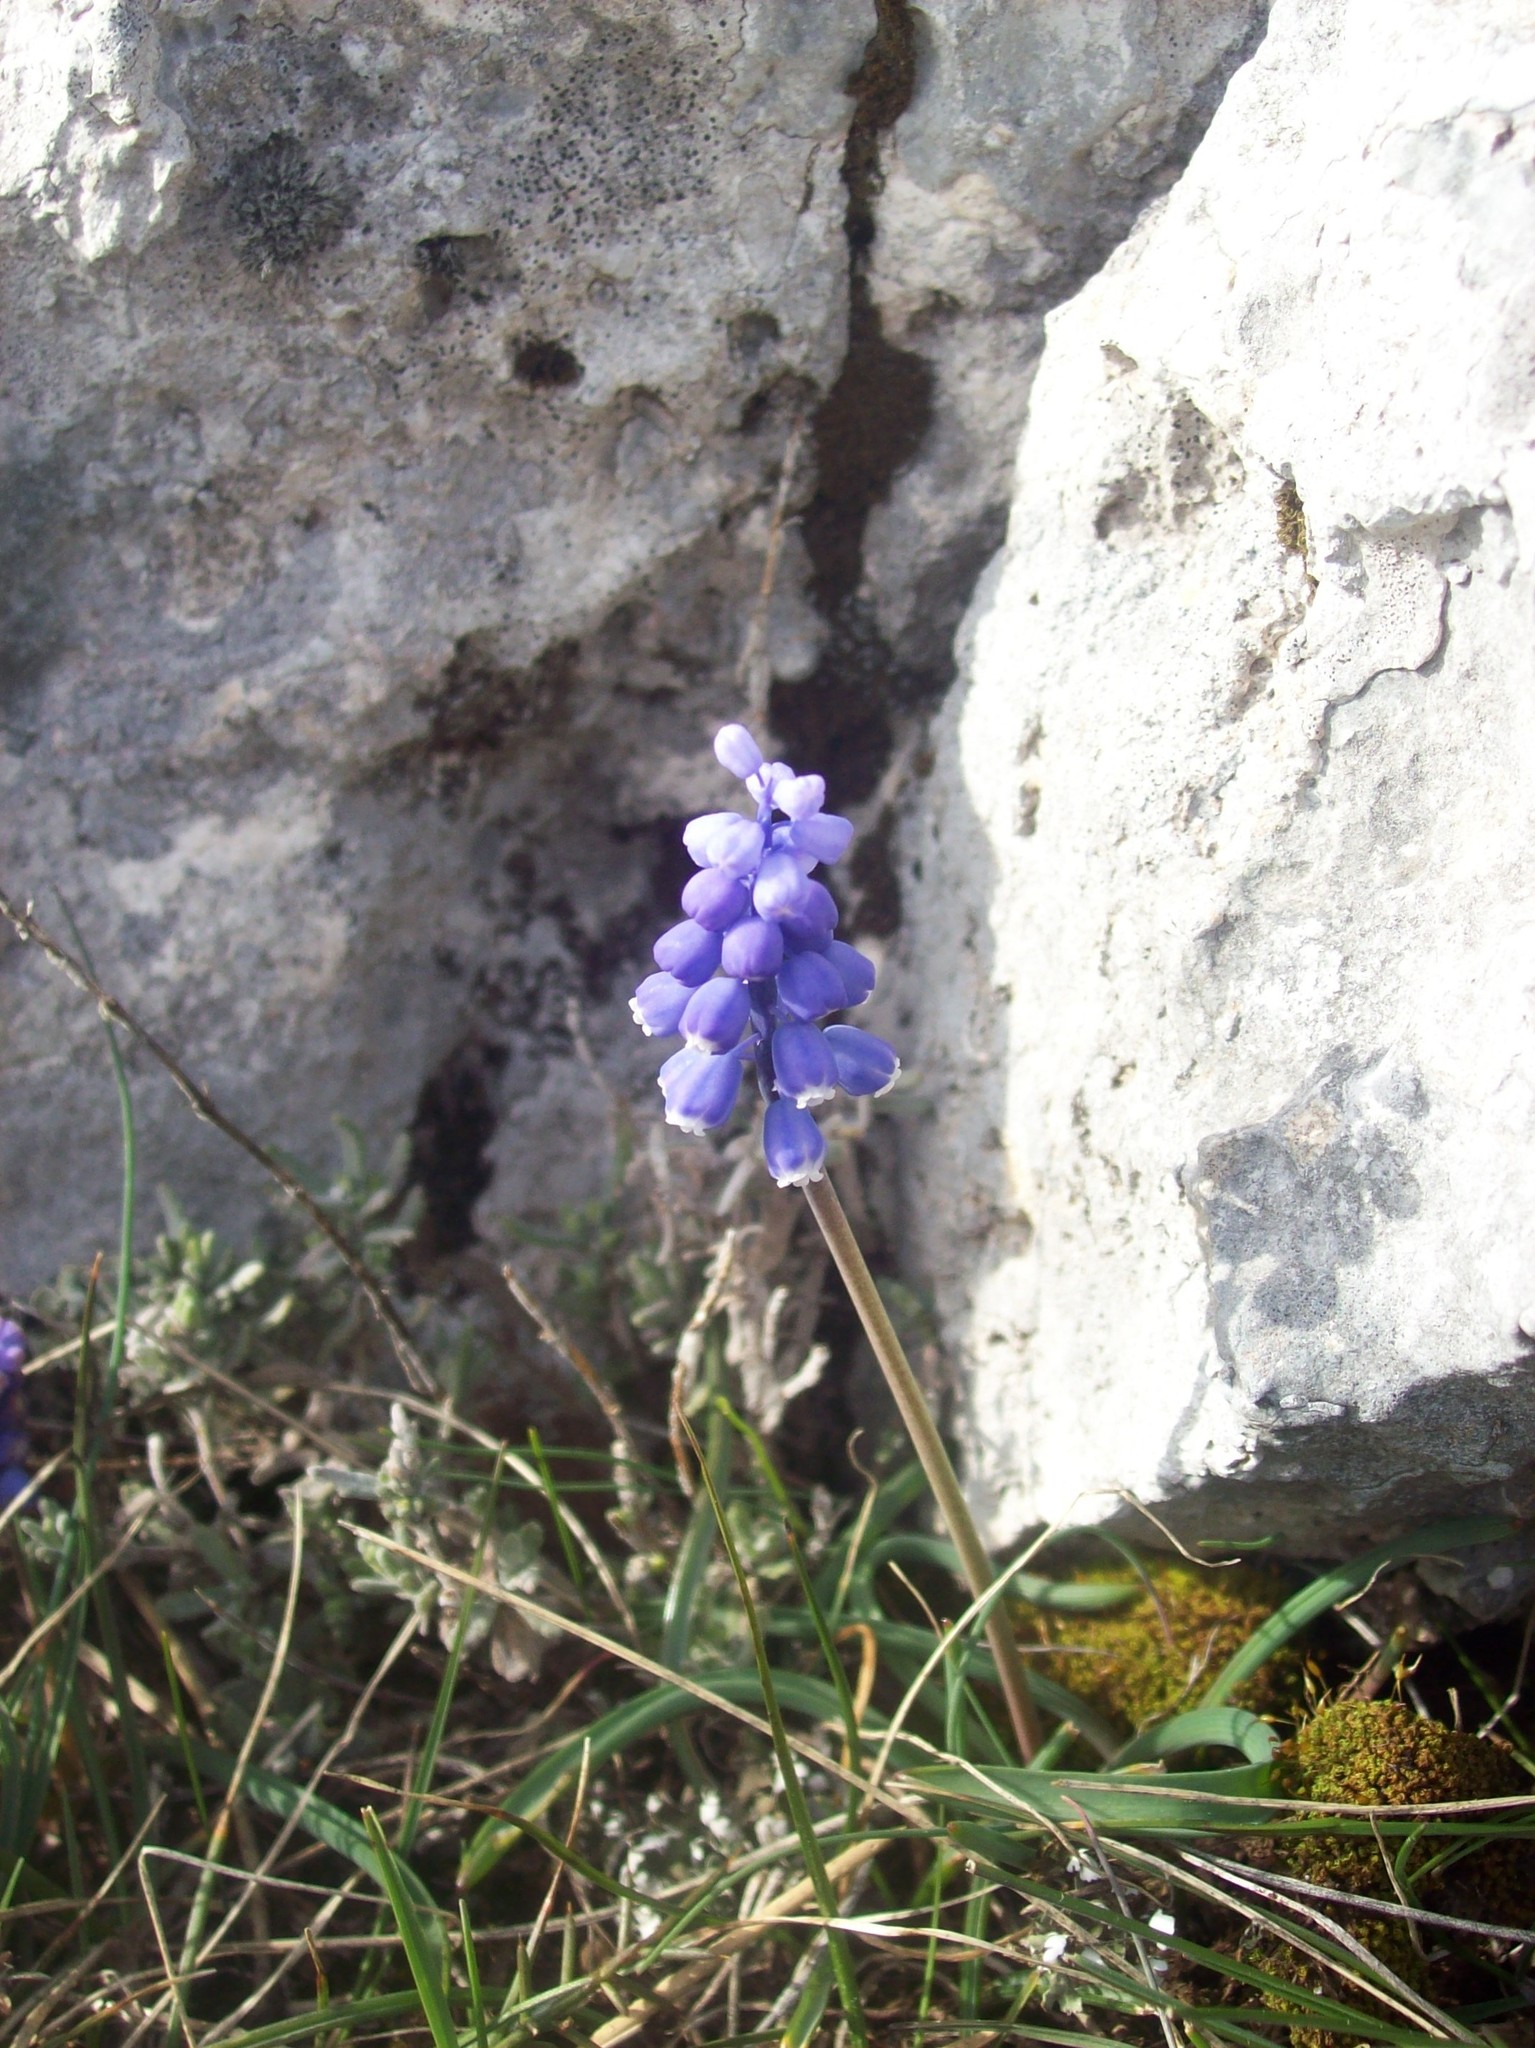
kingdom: Plantae
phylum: Tracheophyta
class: Liliopsida
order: Asparagales
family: Asparagaceae
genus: Muscari
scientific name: Muscari botryoides
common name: Compact grape-hyacinth
